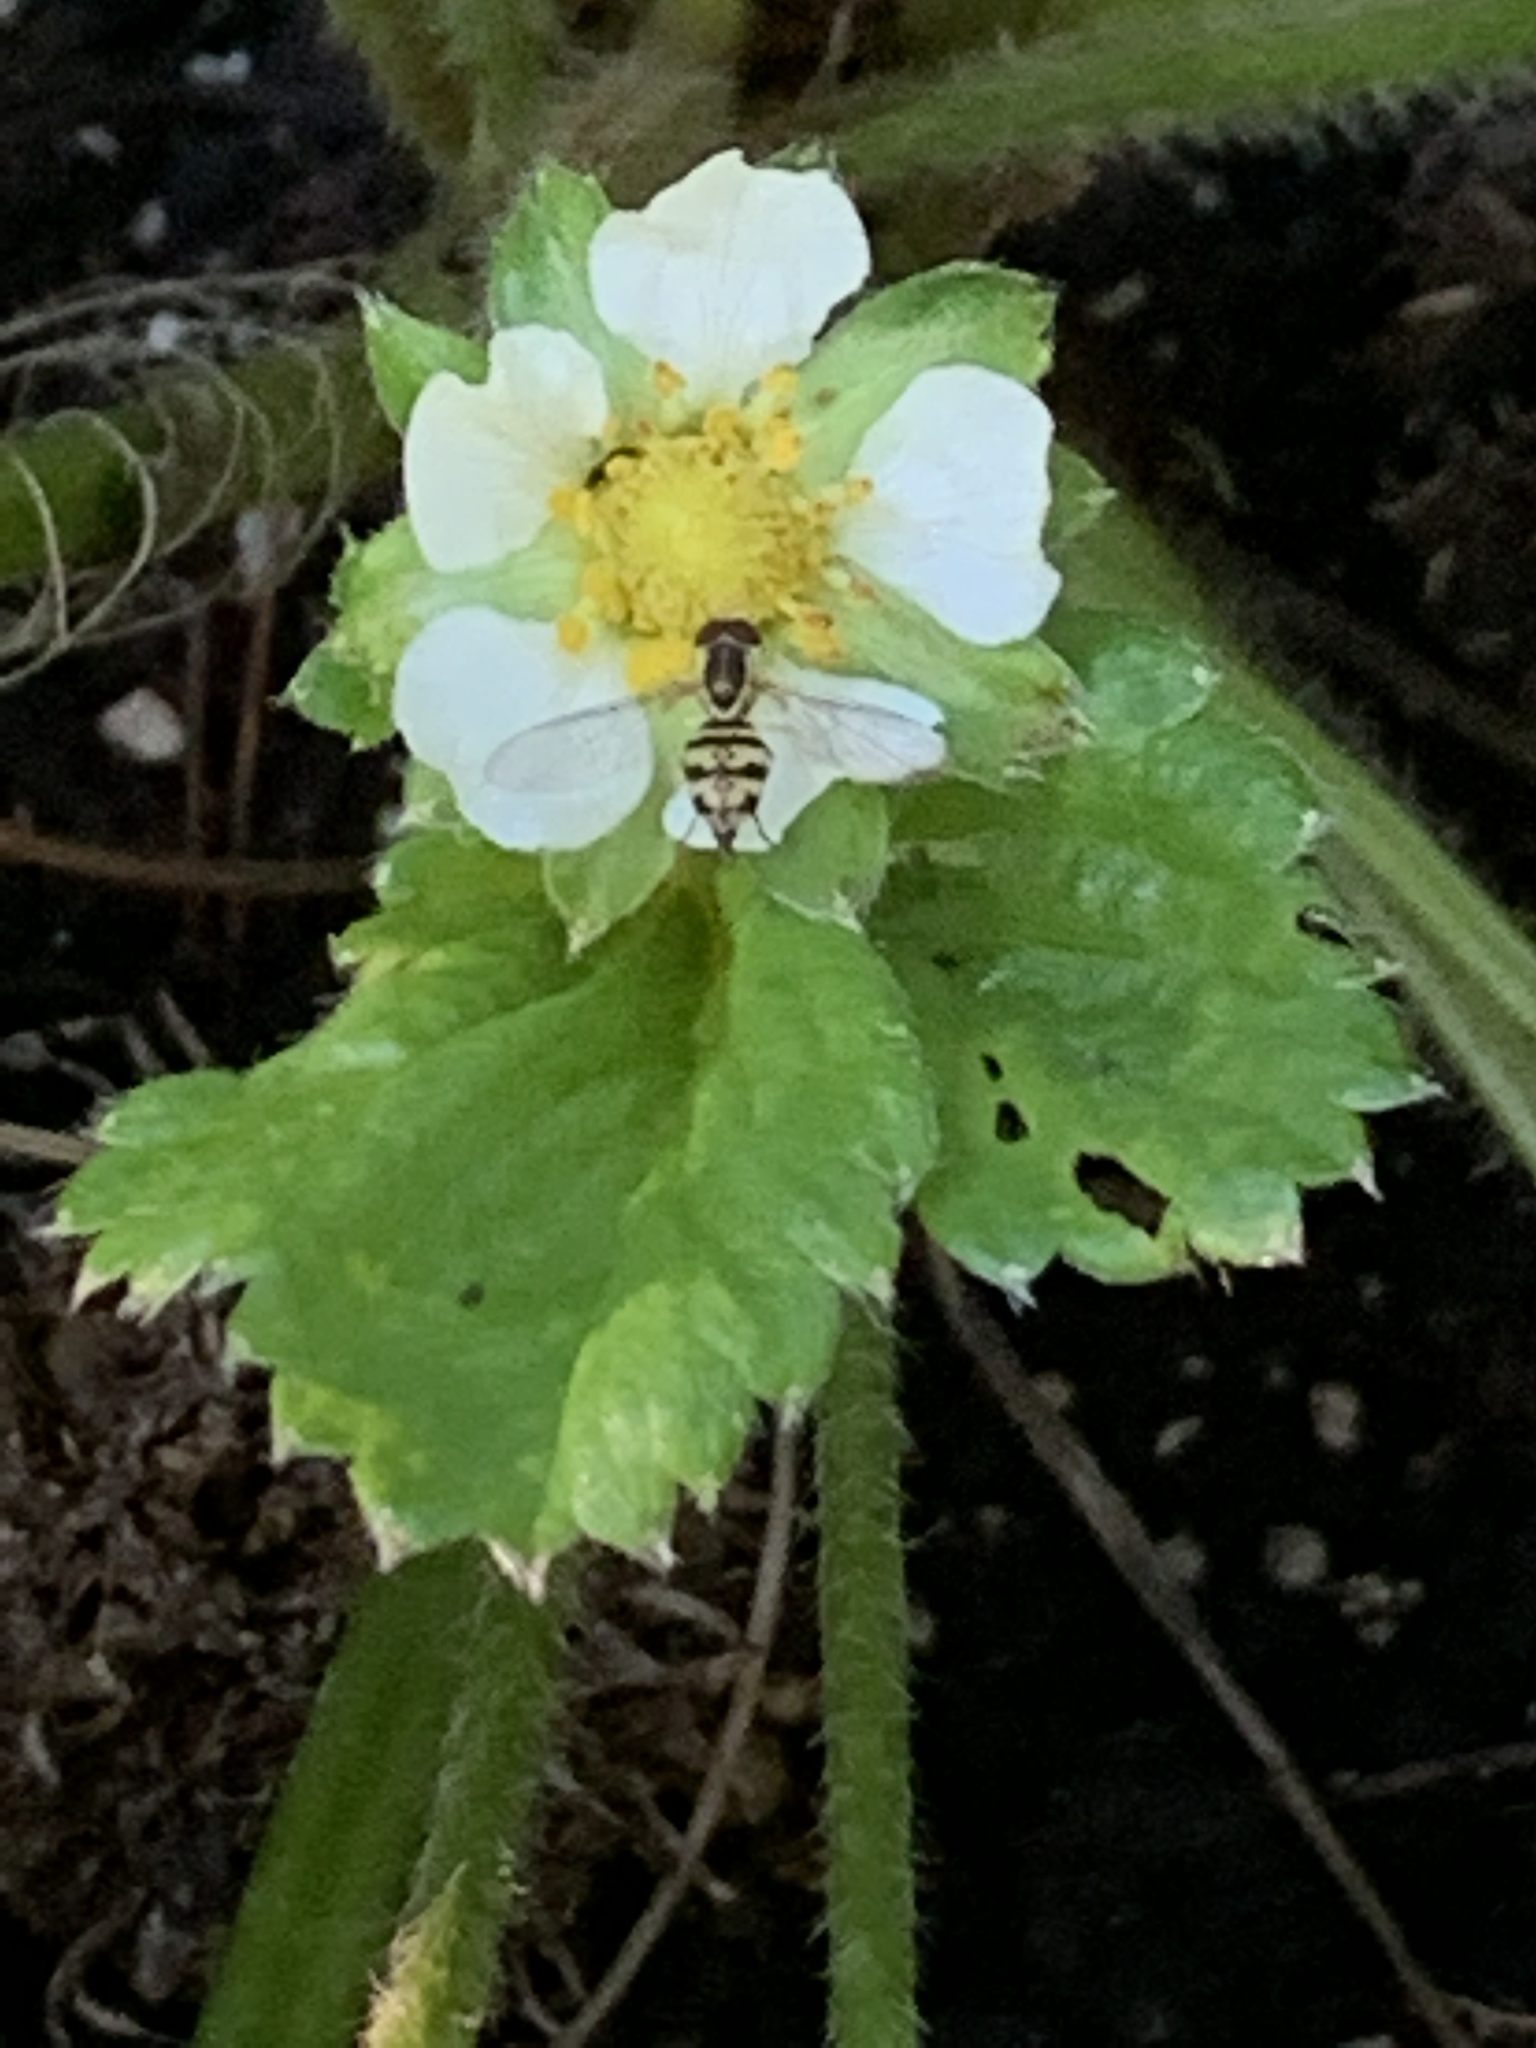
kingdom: Animalia
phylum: Arthropoda
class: Insecta
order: Diptera
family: Syrphidae
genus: Toxomerus
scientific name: Toxomerus geminatus
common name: Eastern calligrapher
